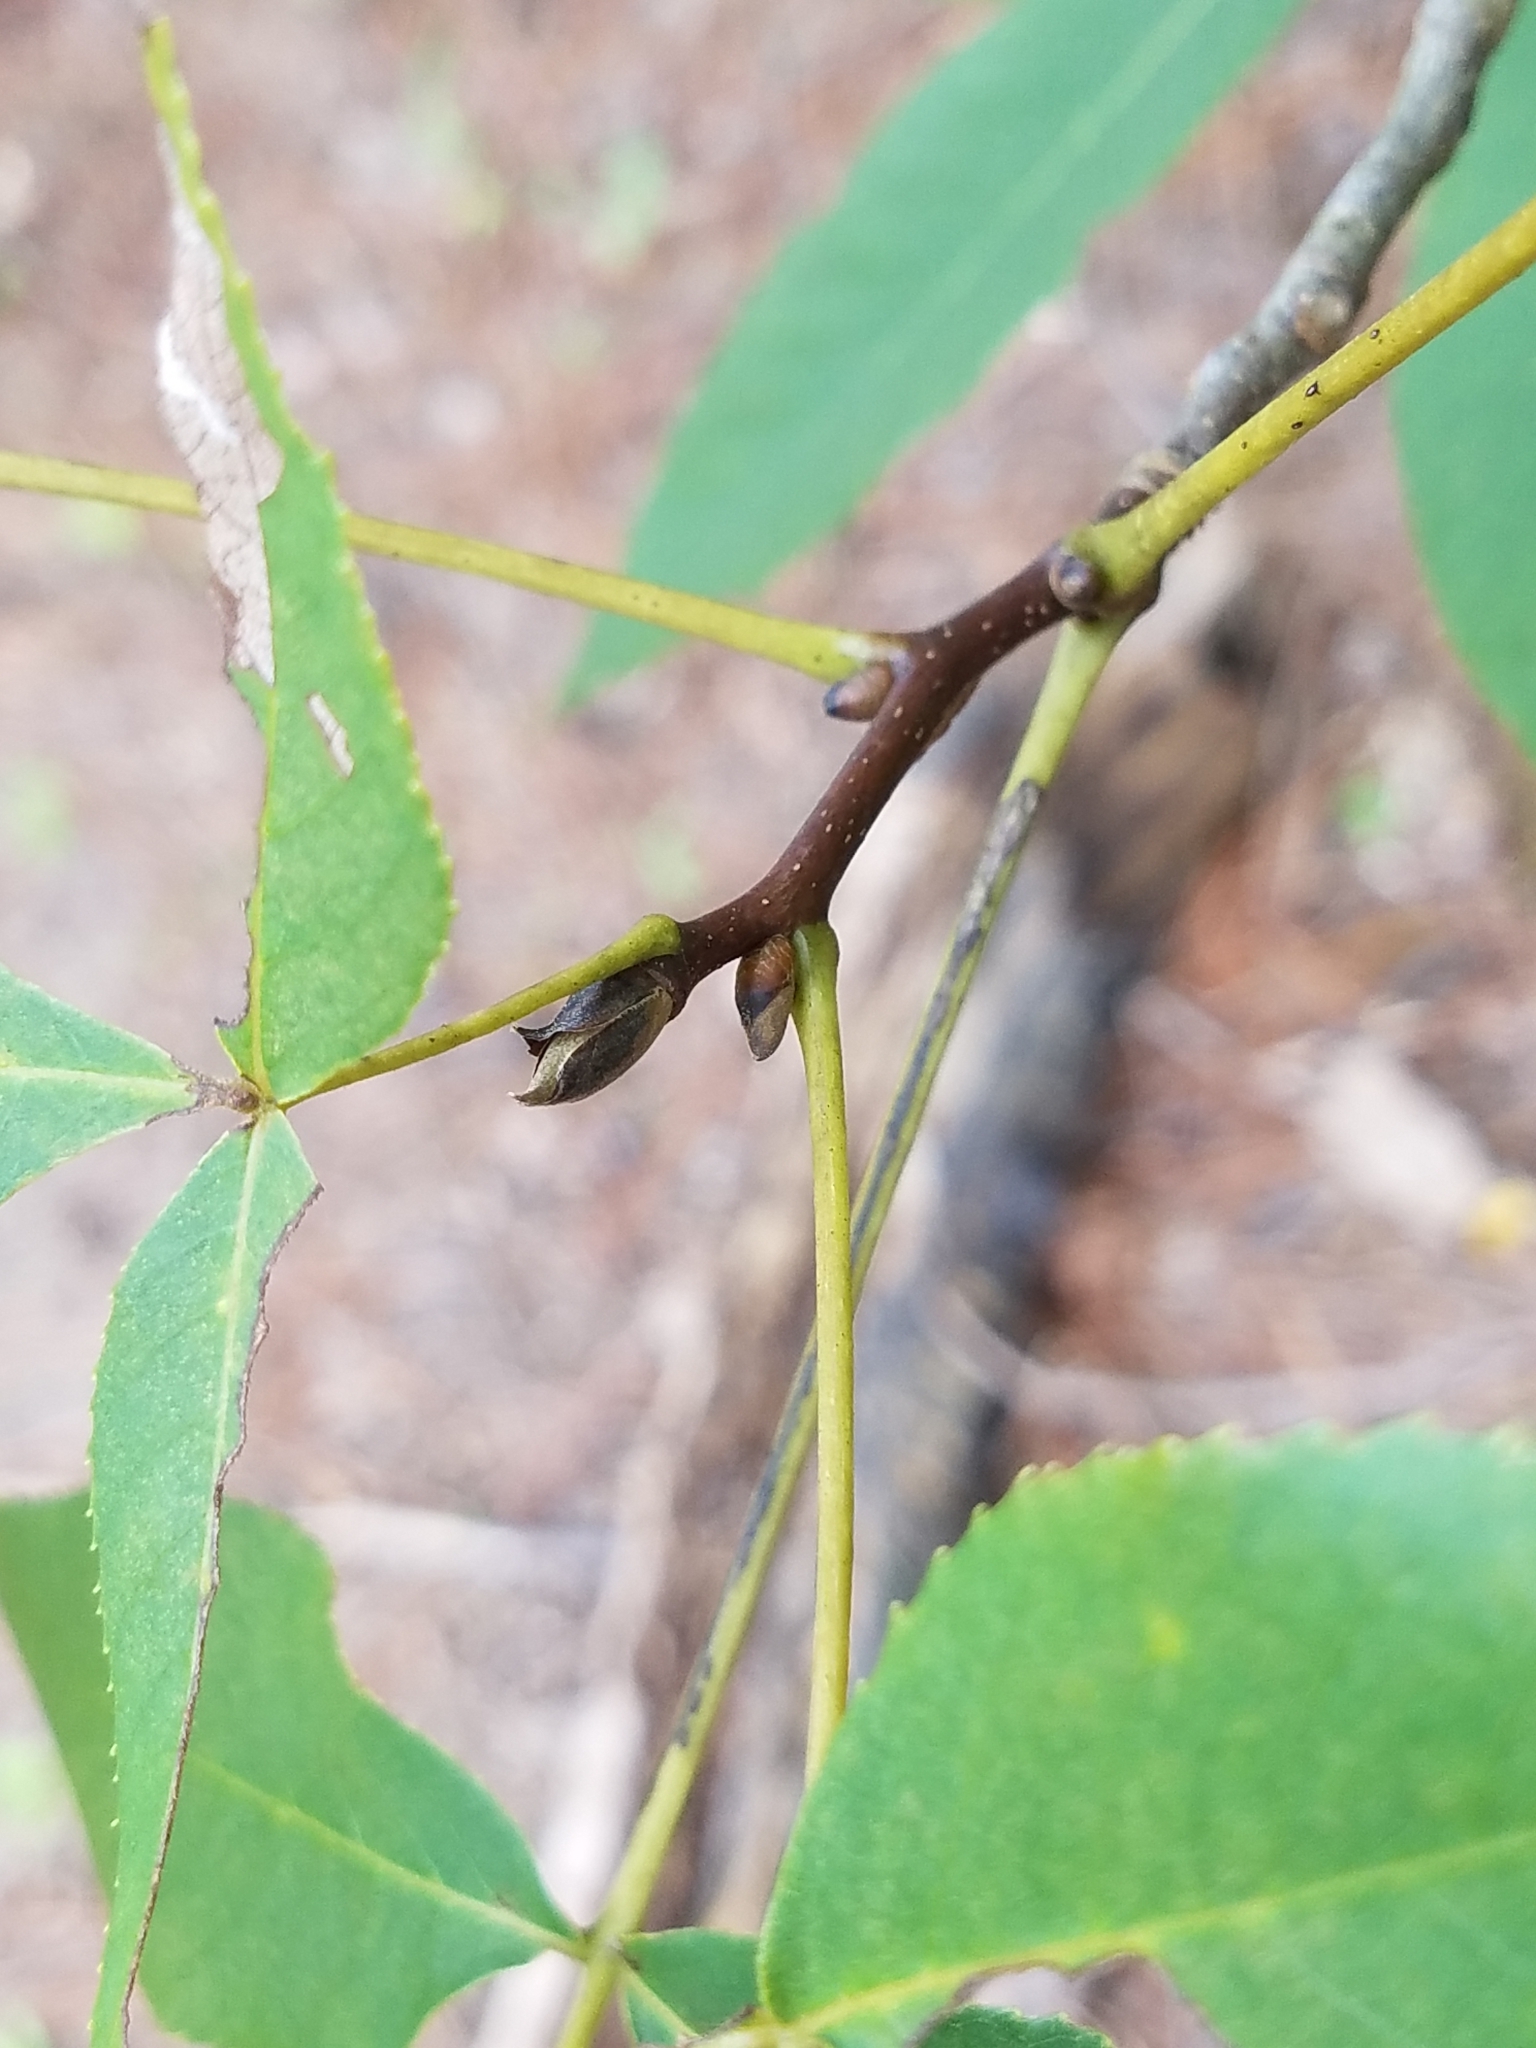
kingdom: Plantae
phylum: Tracheophyta
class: Magnoliopsida
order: Fagales
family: Juglandaceae
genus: Carya
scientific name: Carya carolinae-septentrionalis
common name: Carolina hickory
